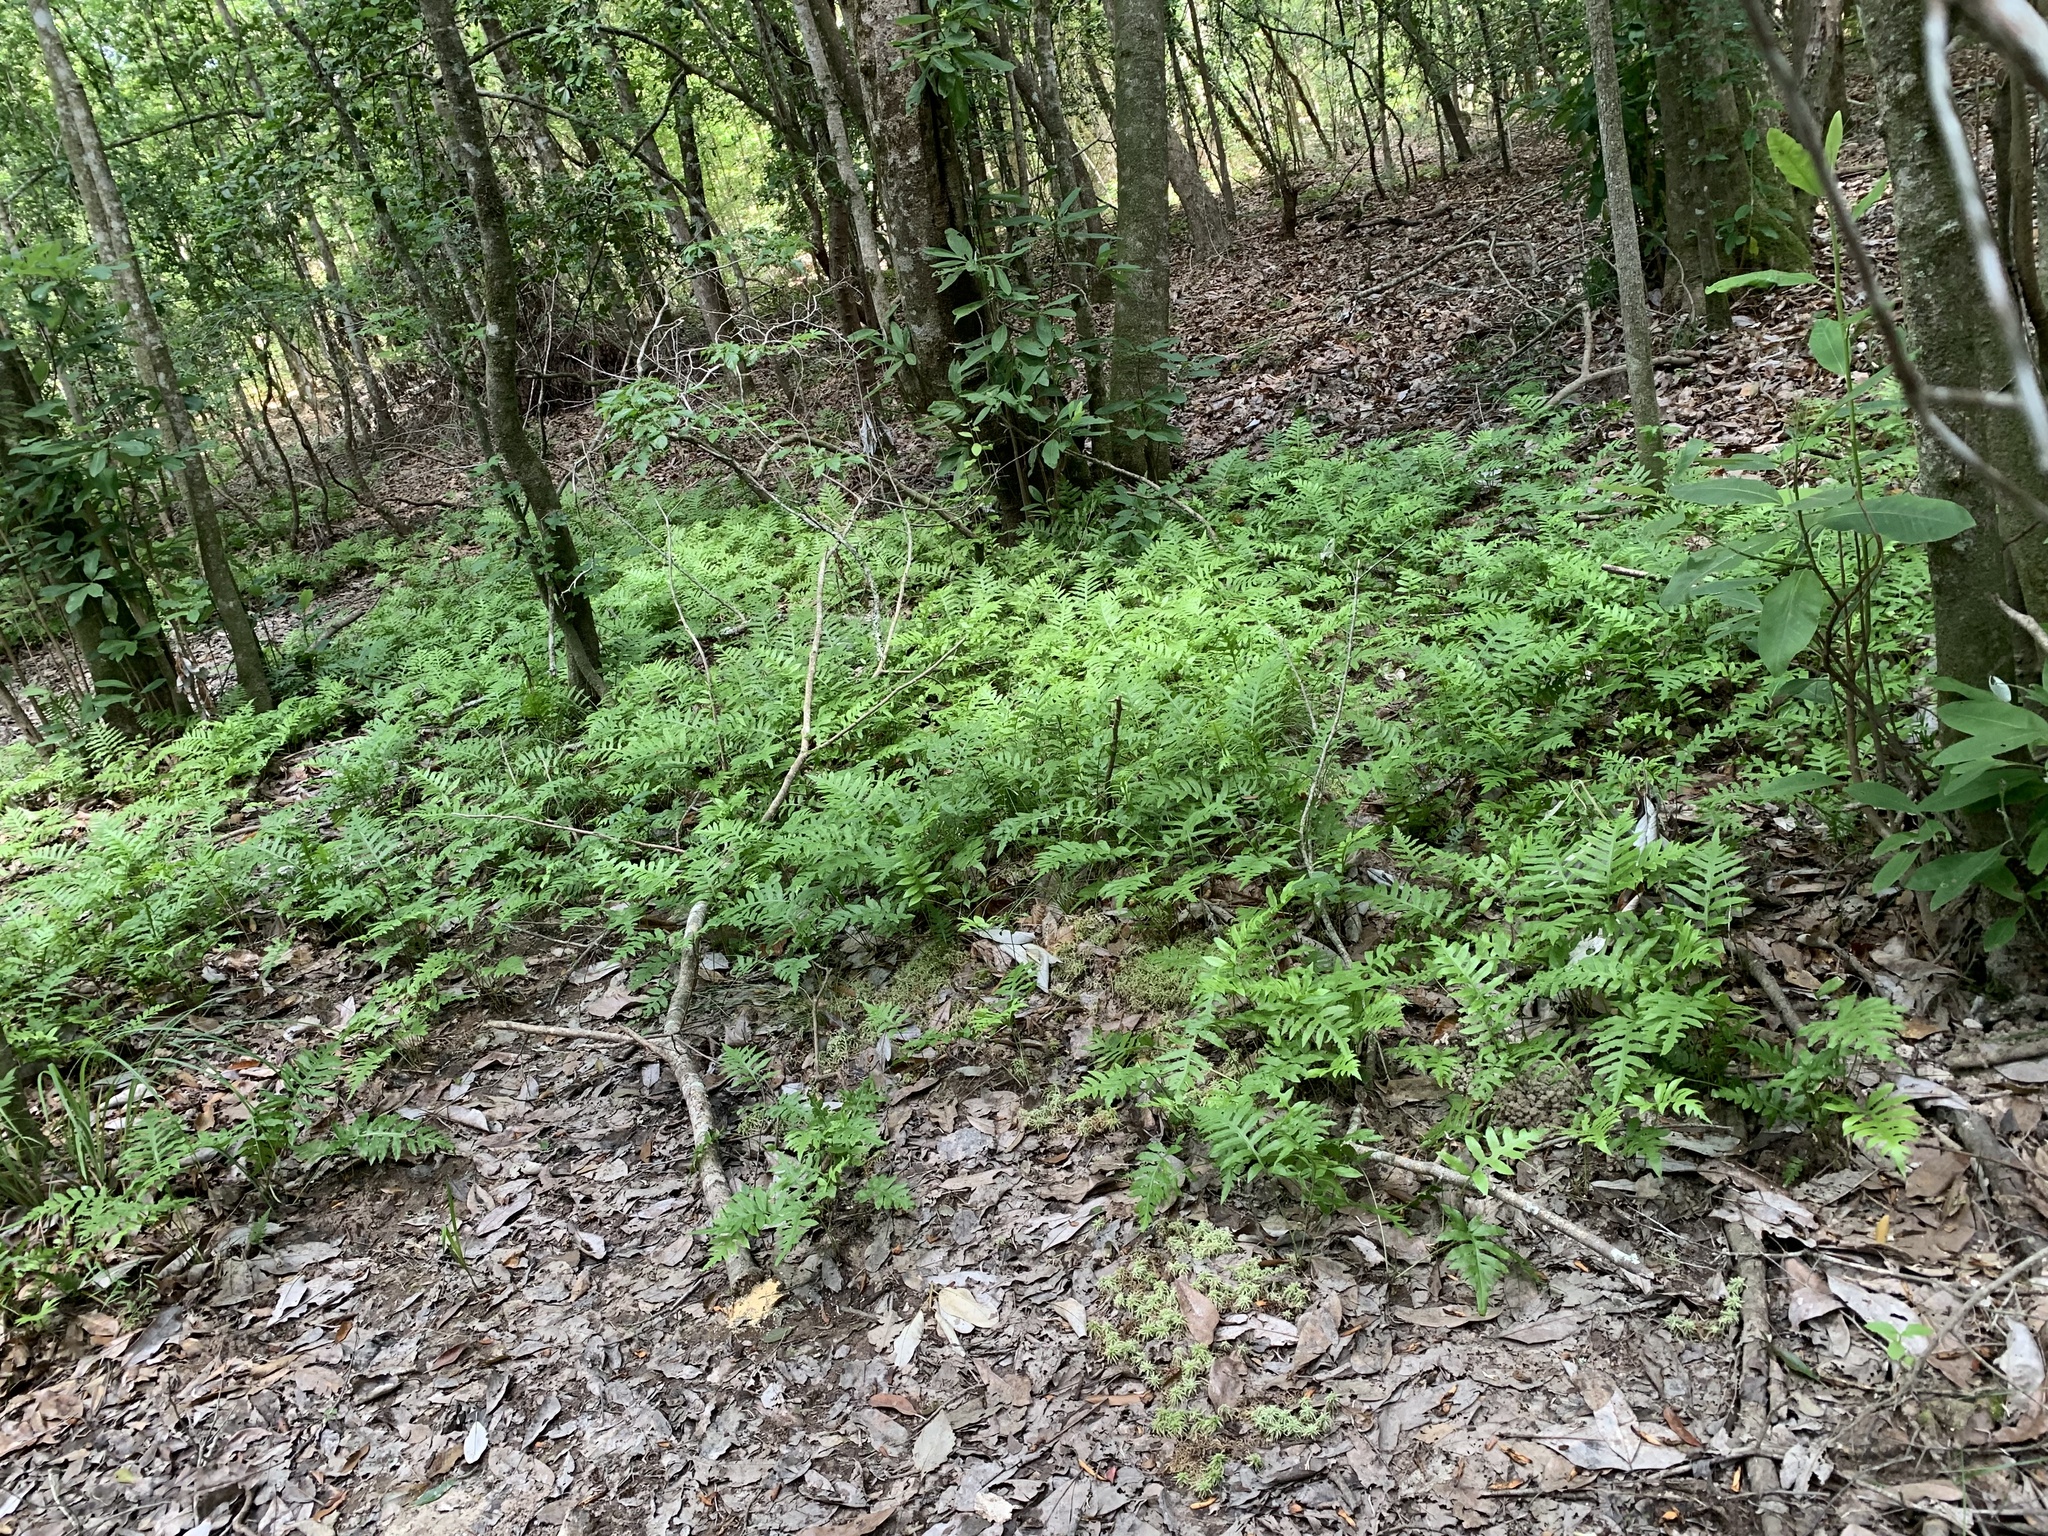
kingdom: Plantae
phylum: Tracheophyta
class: Polypodiopsida
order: Polypodiales
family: Blechnaceae
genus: Lorinseria
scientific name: Lorinseria areolata
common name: Dwarf chain fern
